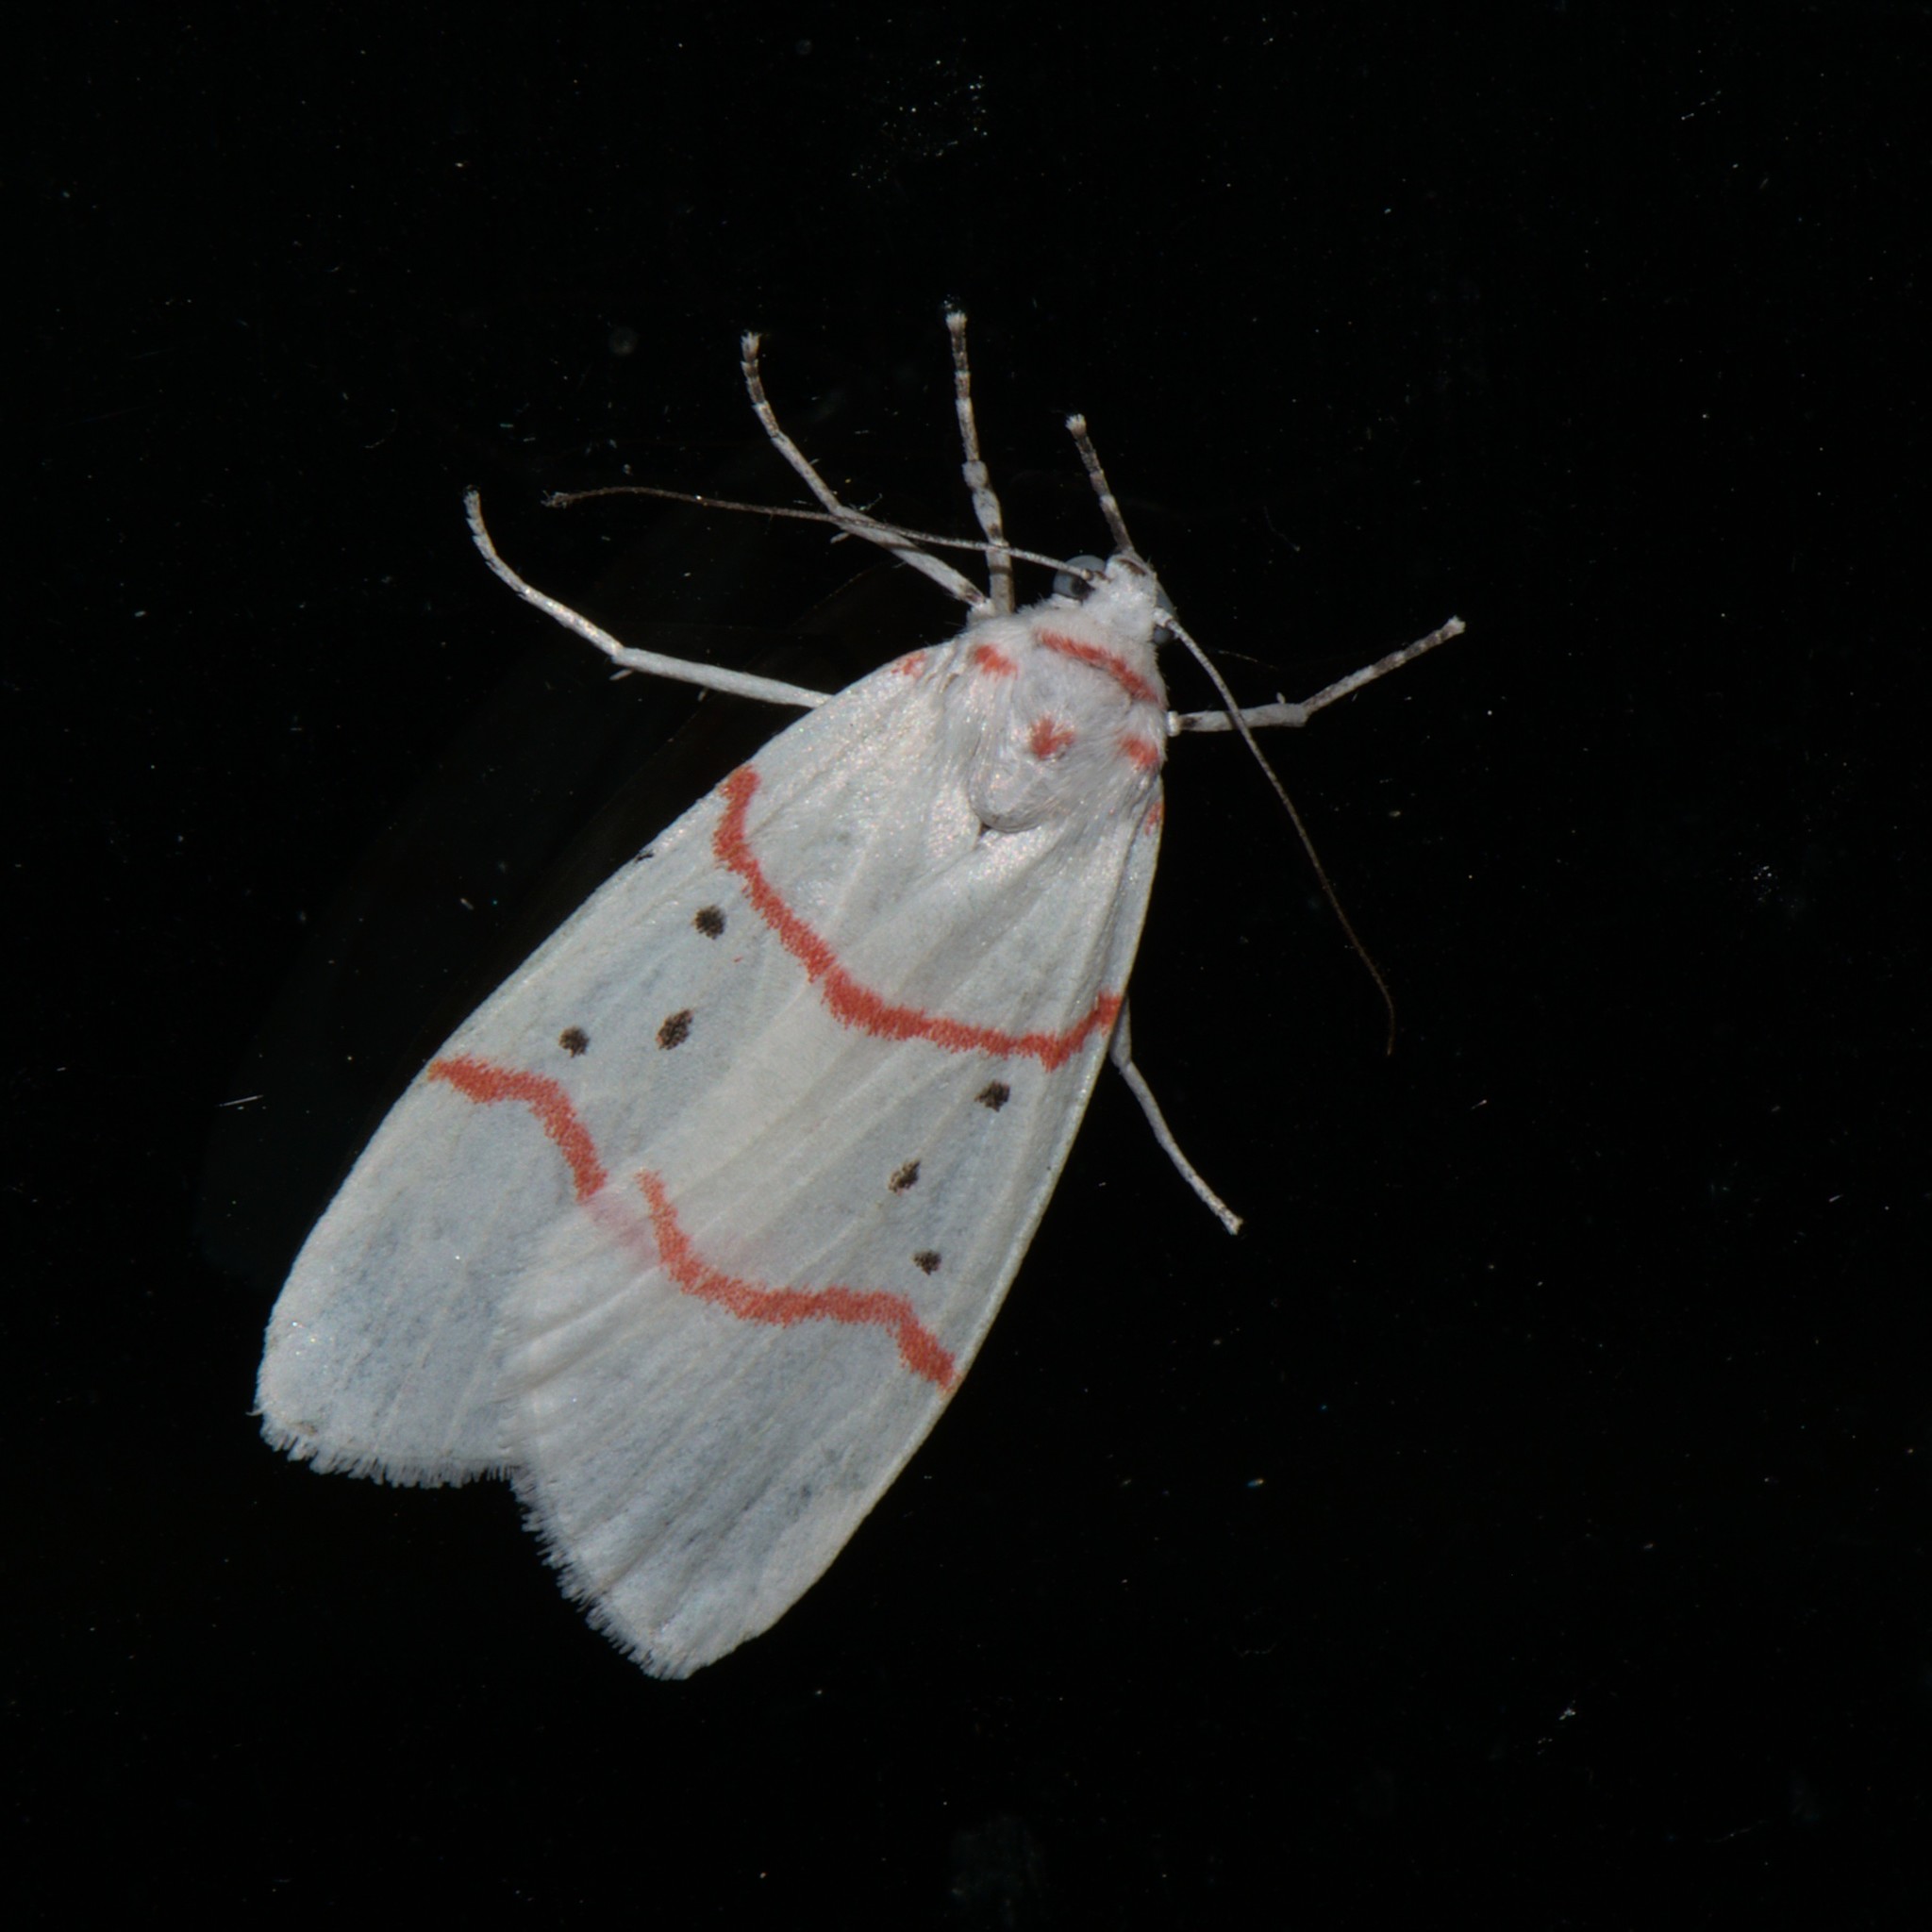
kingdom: Animalia
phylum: Arthropoda
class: Insecta
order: Lepidoptera
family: Erebidae
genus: Cyana
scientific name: Cyana adita
